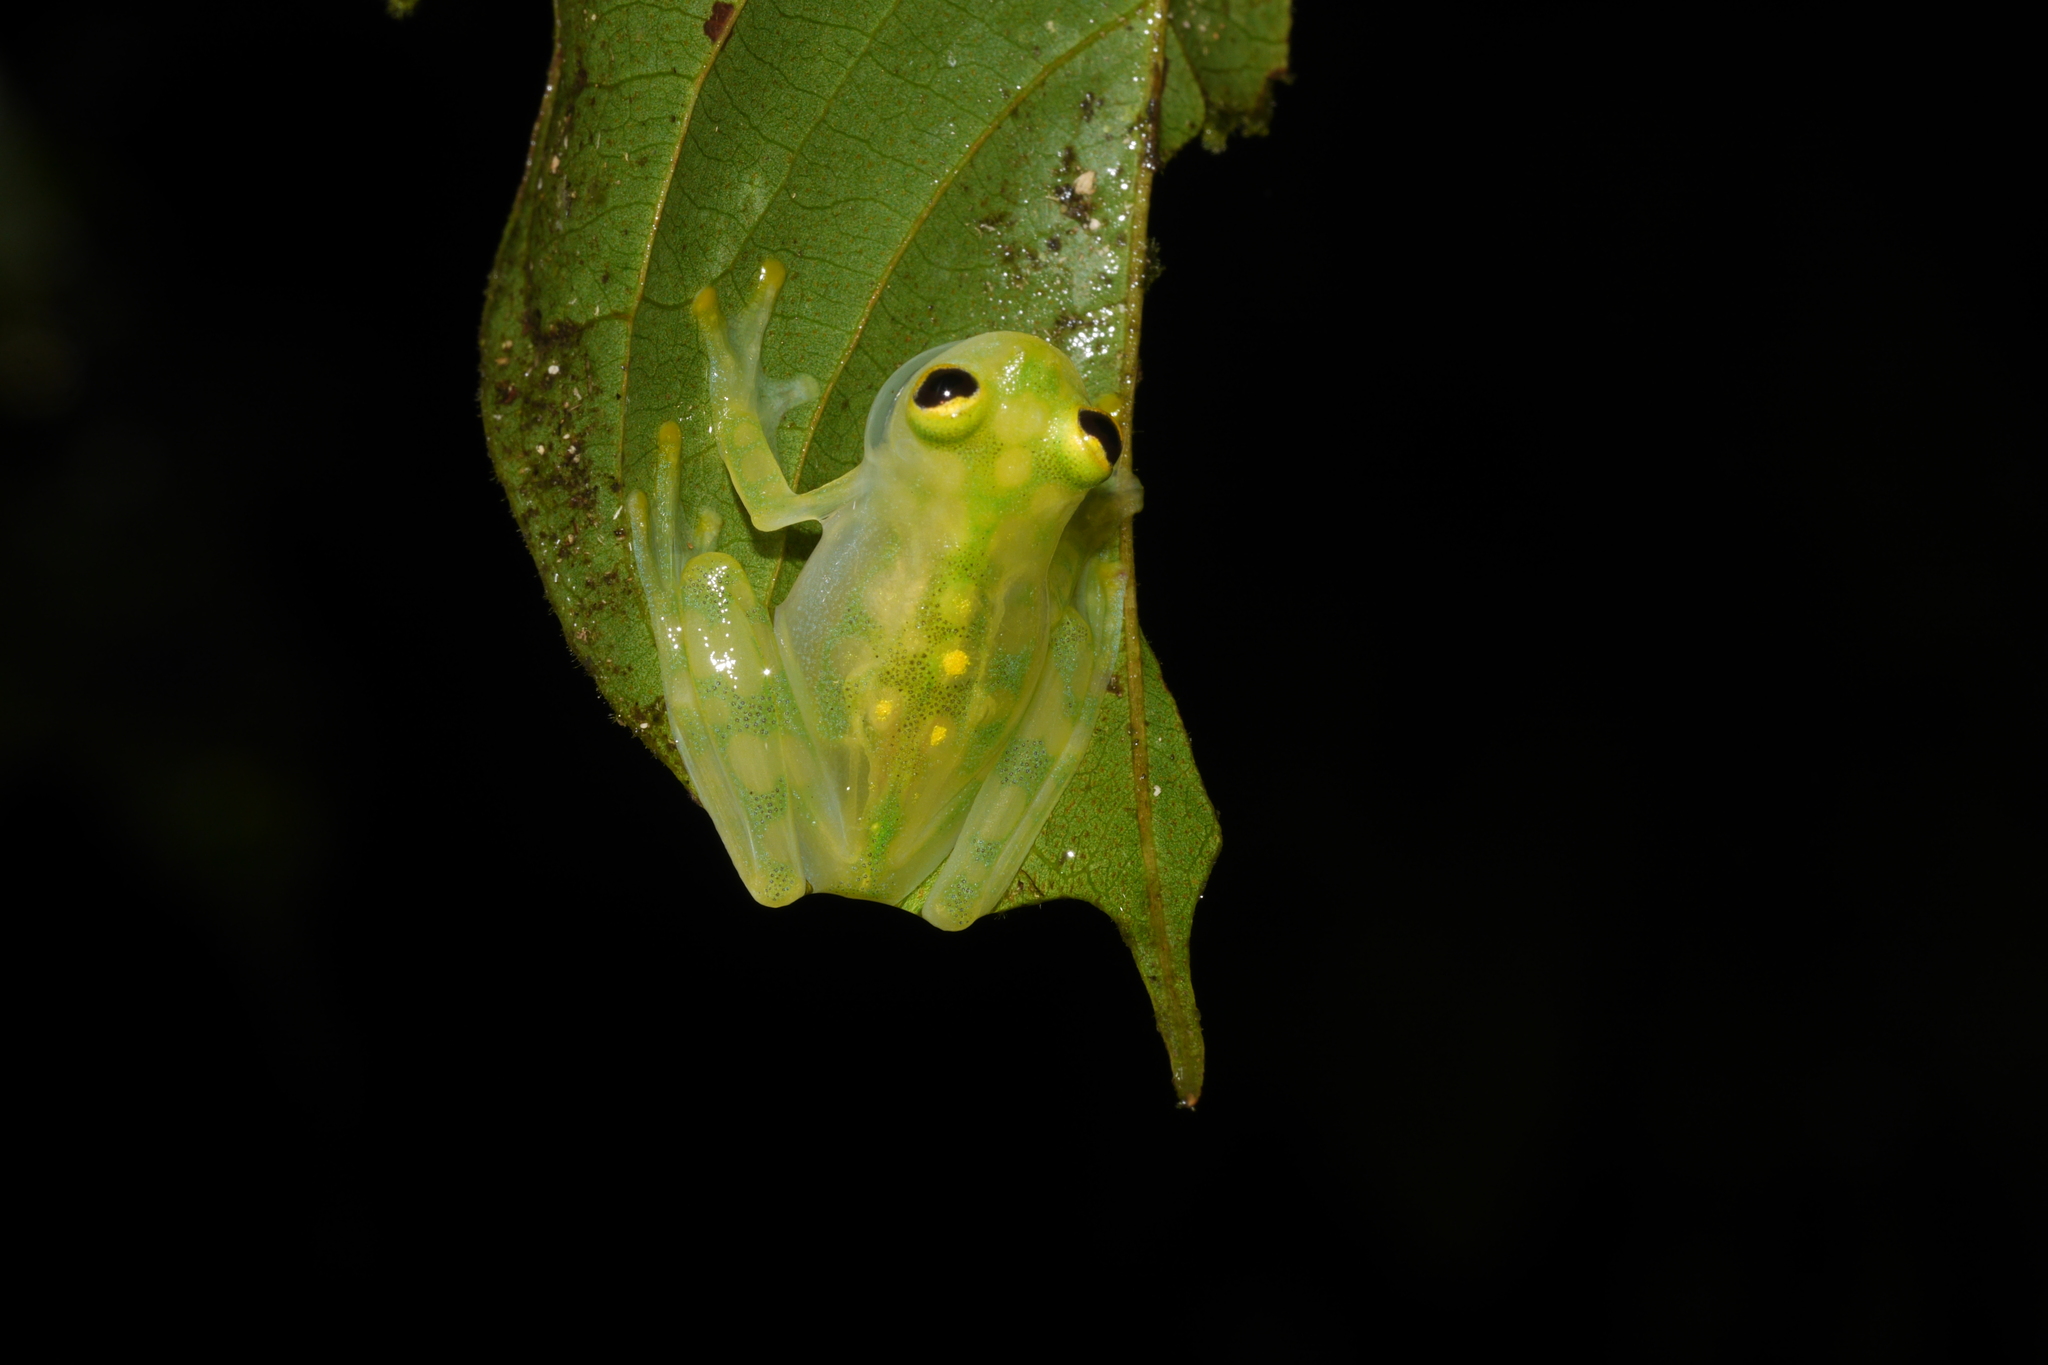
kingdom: Animalia
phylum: Chordata
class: Amphibia
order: Anura
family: Centrolenidae
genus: Hyalinobatrachium
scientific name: Hyalinobatrachium aureoguttatum
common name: Atrato glass frog
